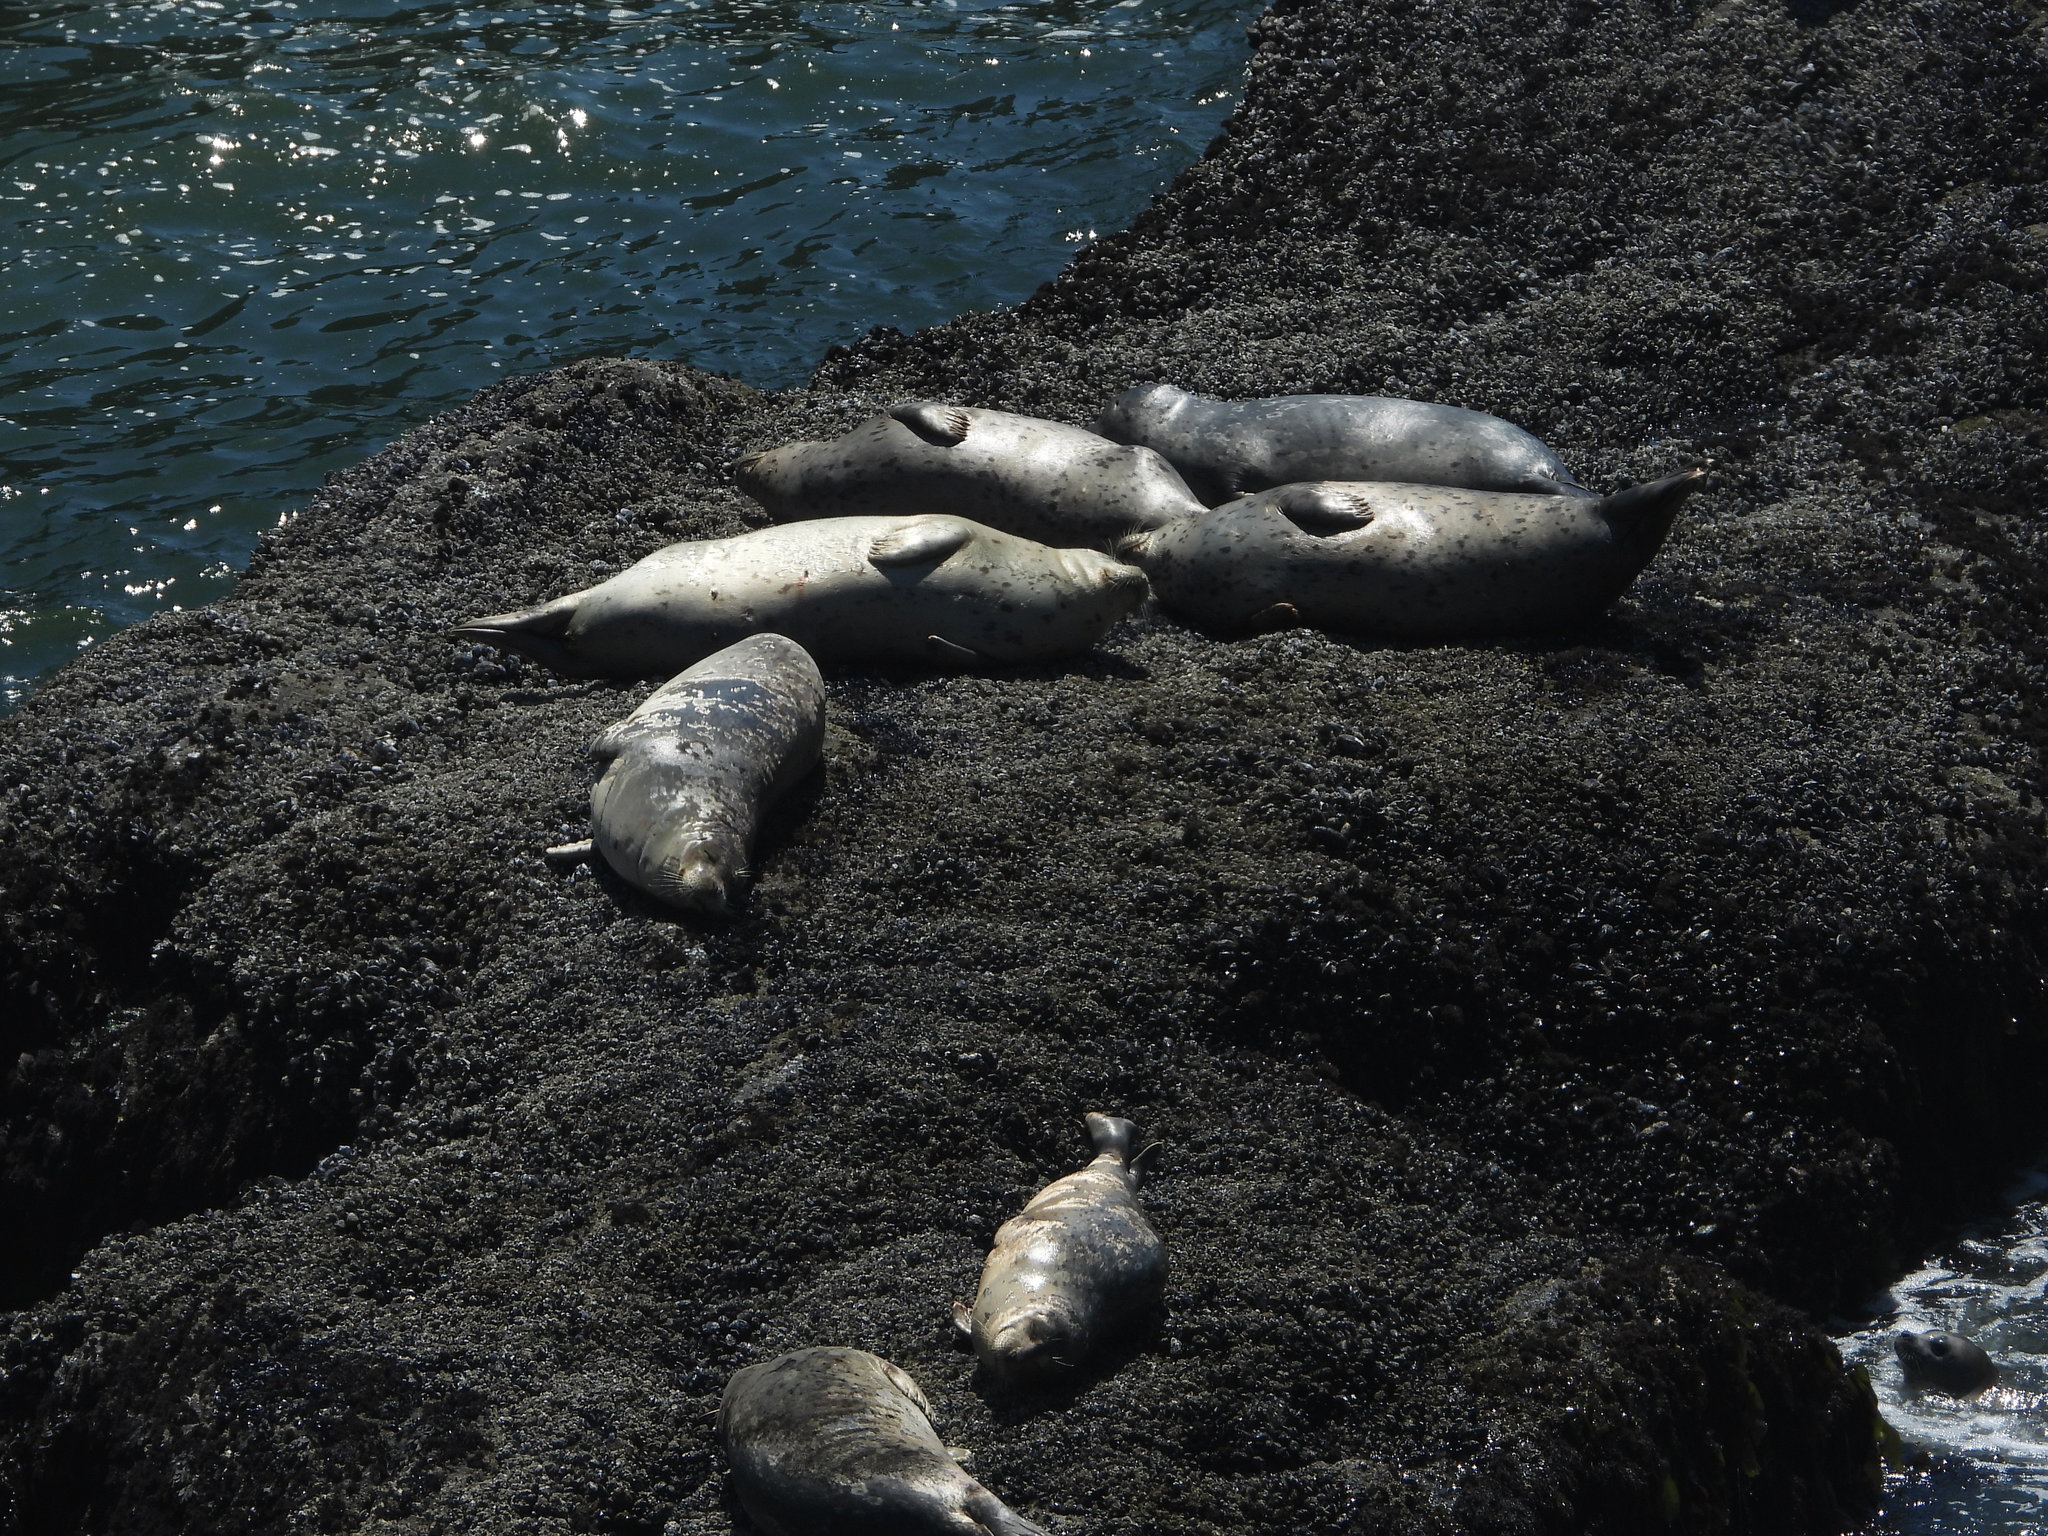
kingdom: Animalia
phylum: Chordata
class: Mammalia
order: Carnivora
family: Phocidae
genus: Phoca
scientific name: Phoca vitulina
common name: Harbor seal
